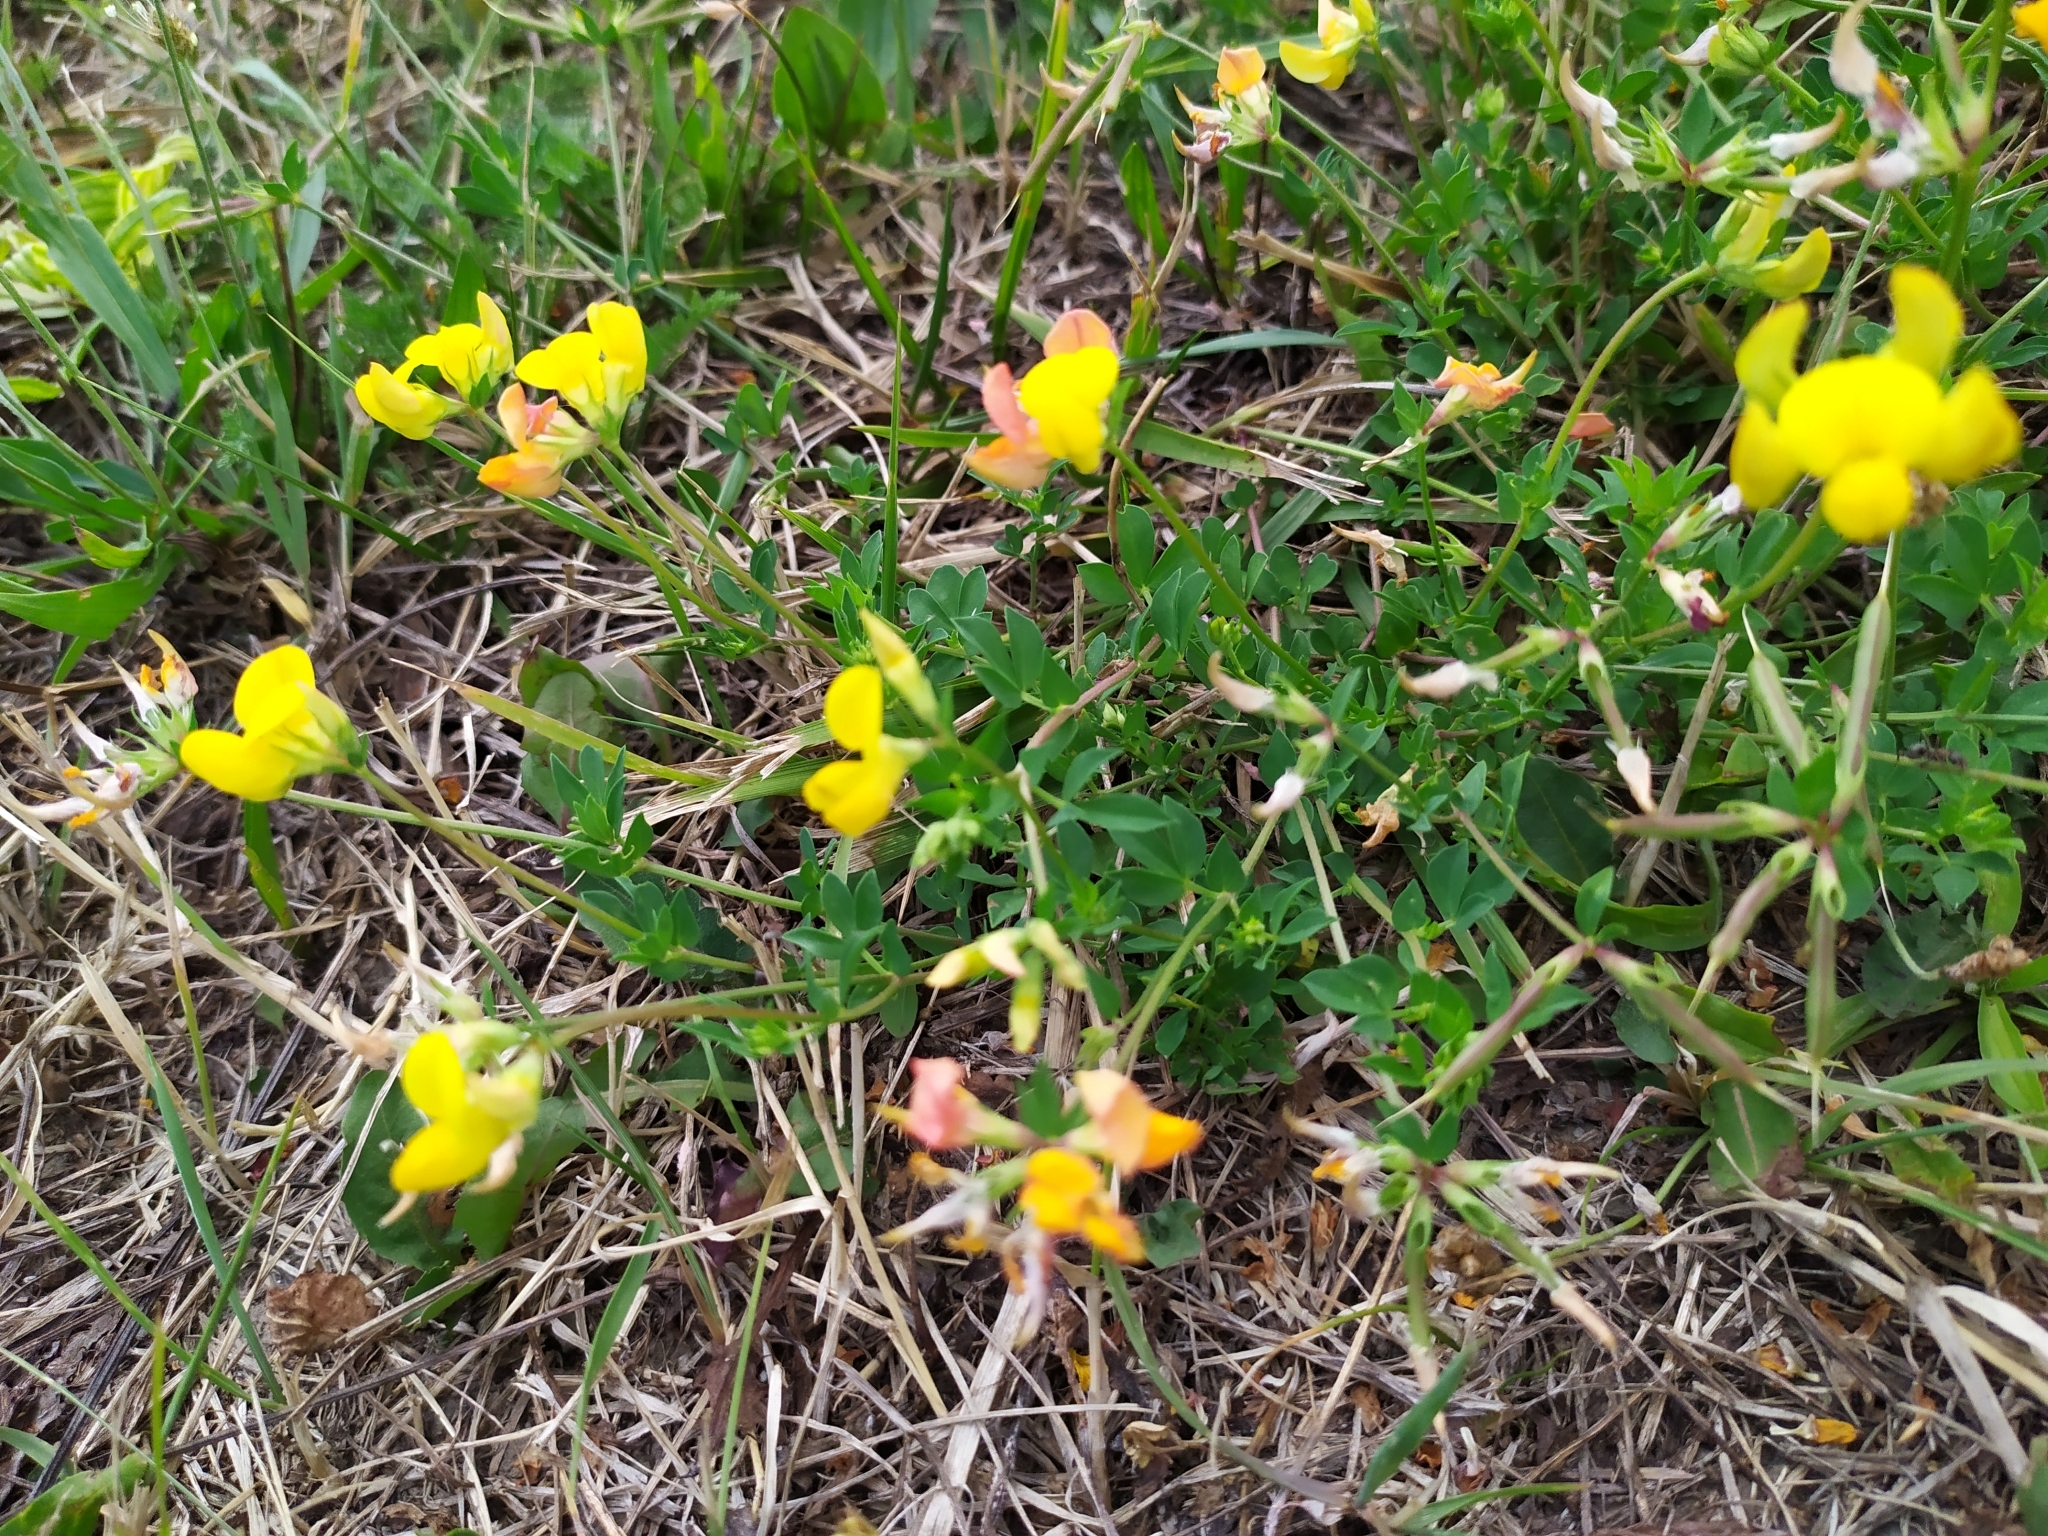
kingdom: Plantae
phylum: Tracheophyta
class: Magnoliopsida
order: Fabales
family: Fabaceae
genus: Lotus
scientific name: Lotus corniculatus
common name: Common bird's-foot-trefoil
